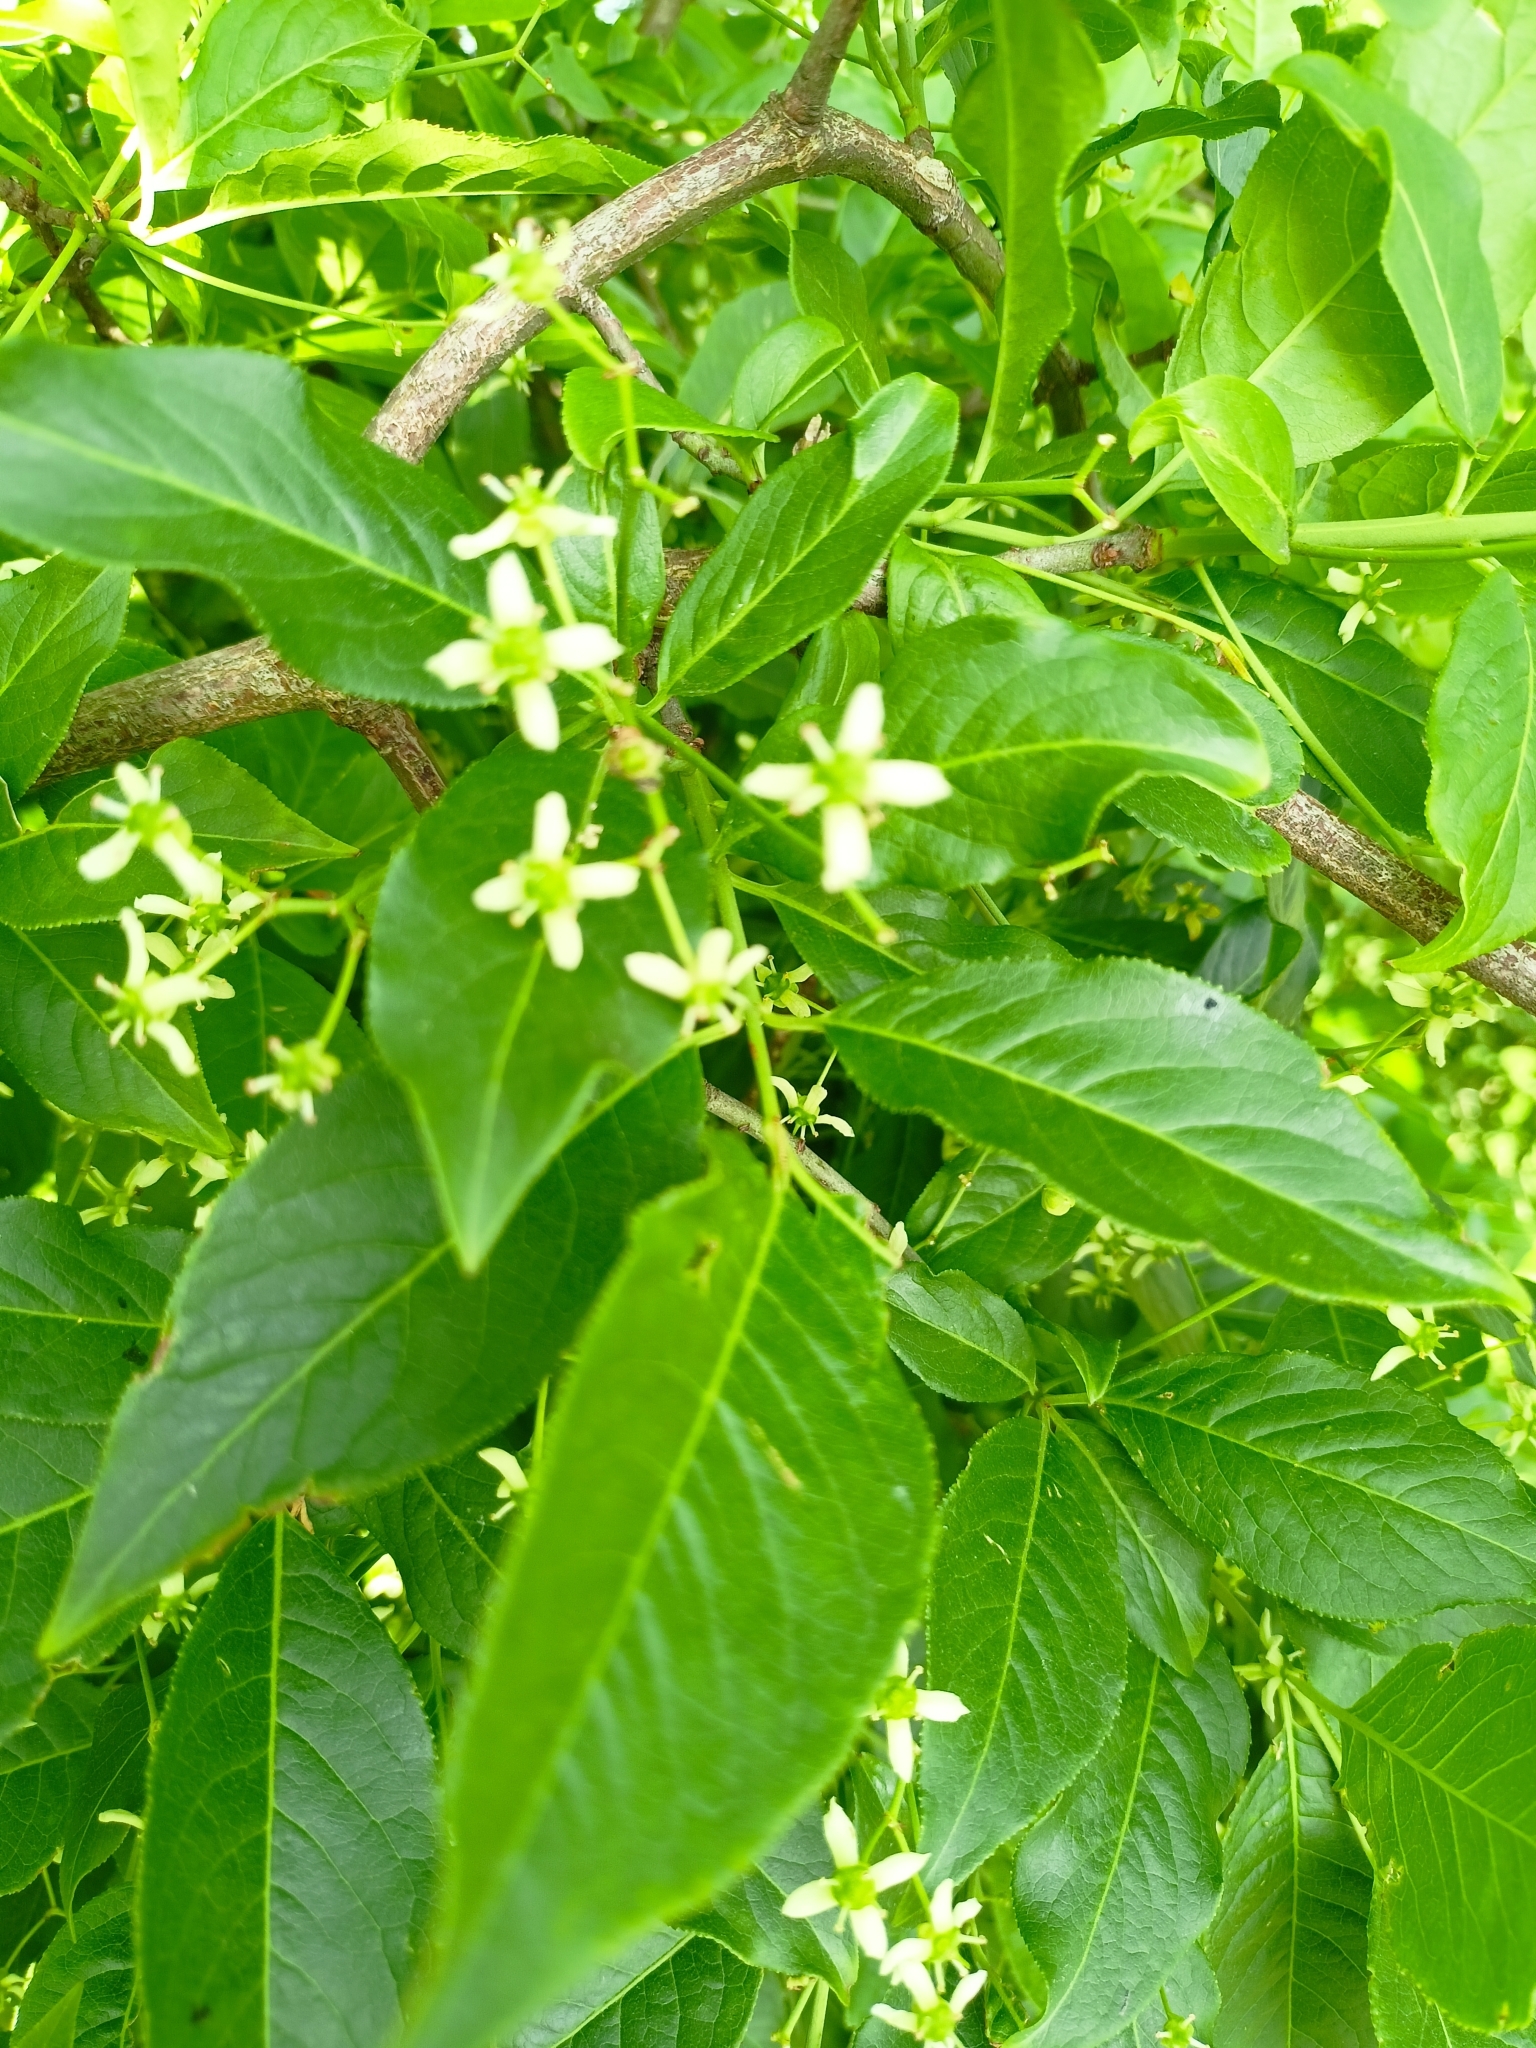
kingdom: Plantae
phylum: Tracheophyta
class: Magnoliopsida
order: Celastrales
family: Celastraceae
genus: Euonymus
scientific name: Euonymus europaeus
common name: Spindle
